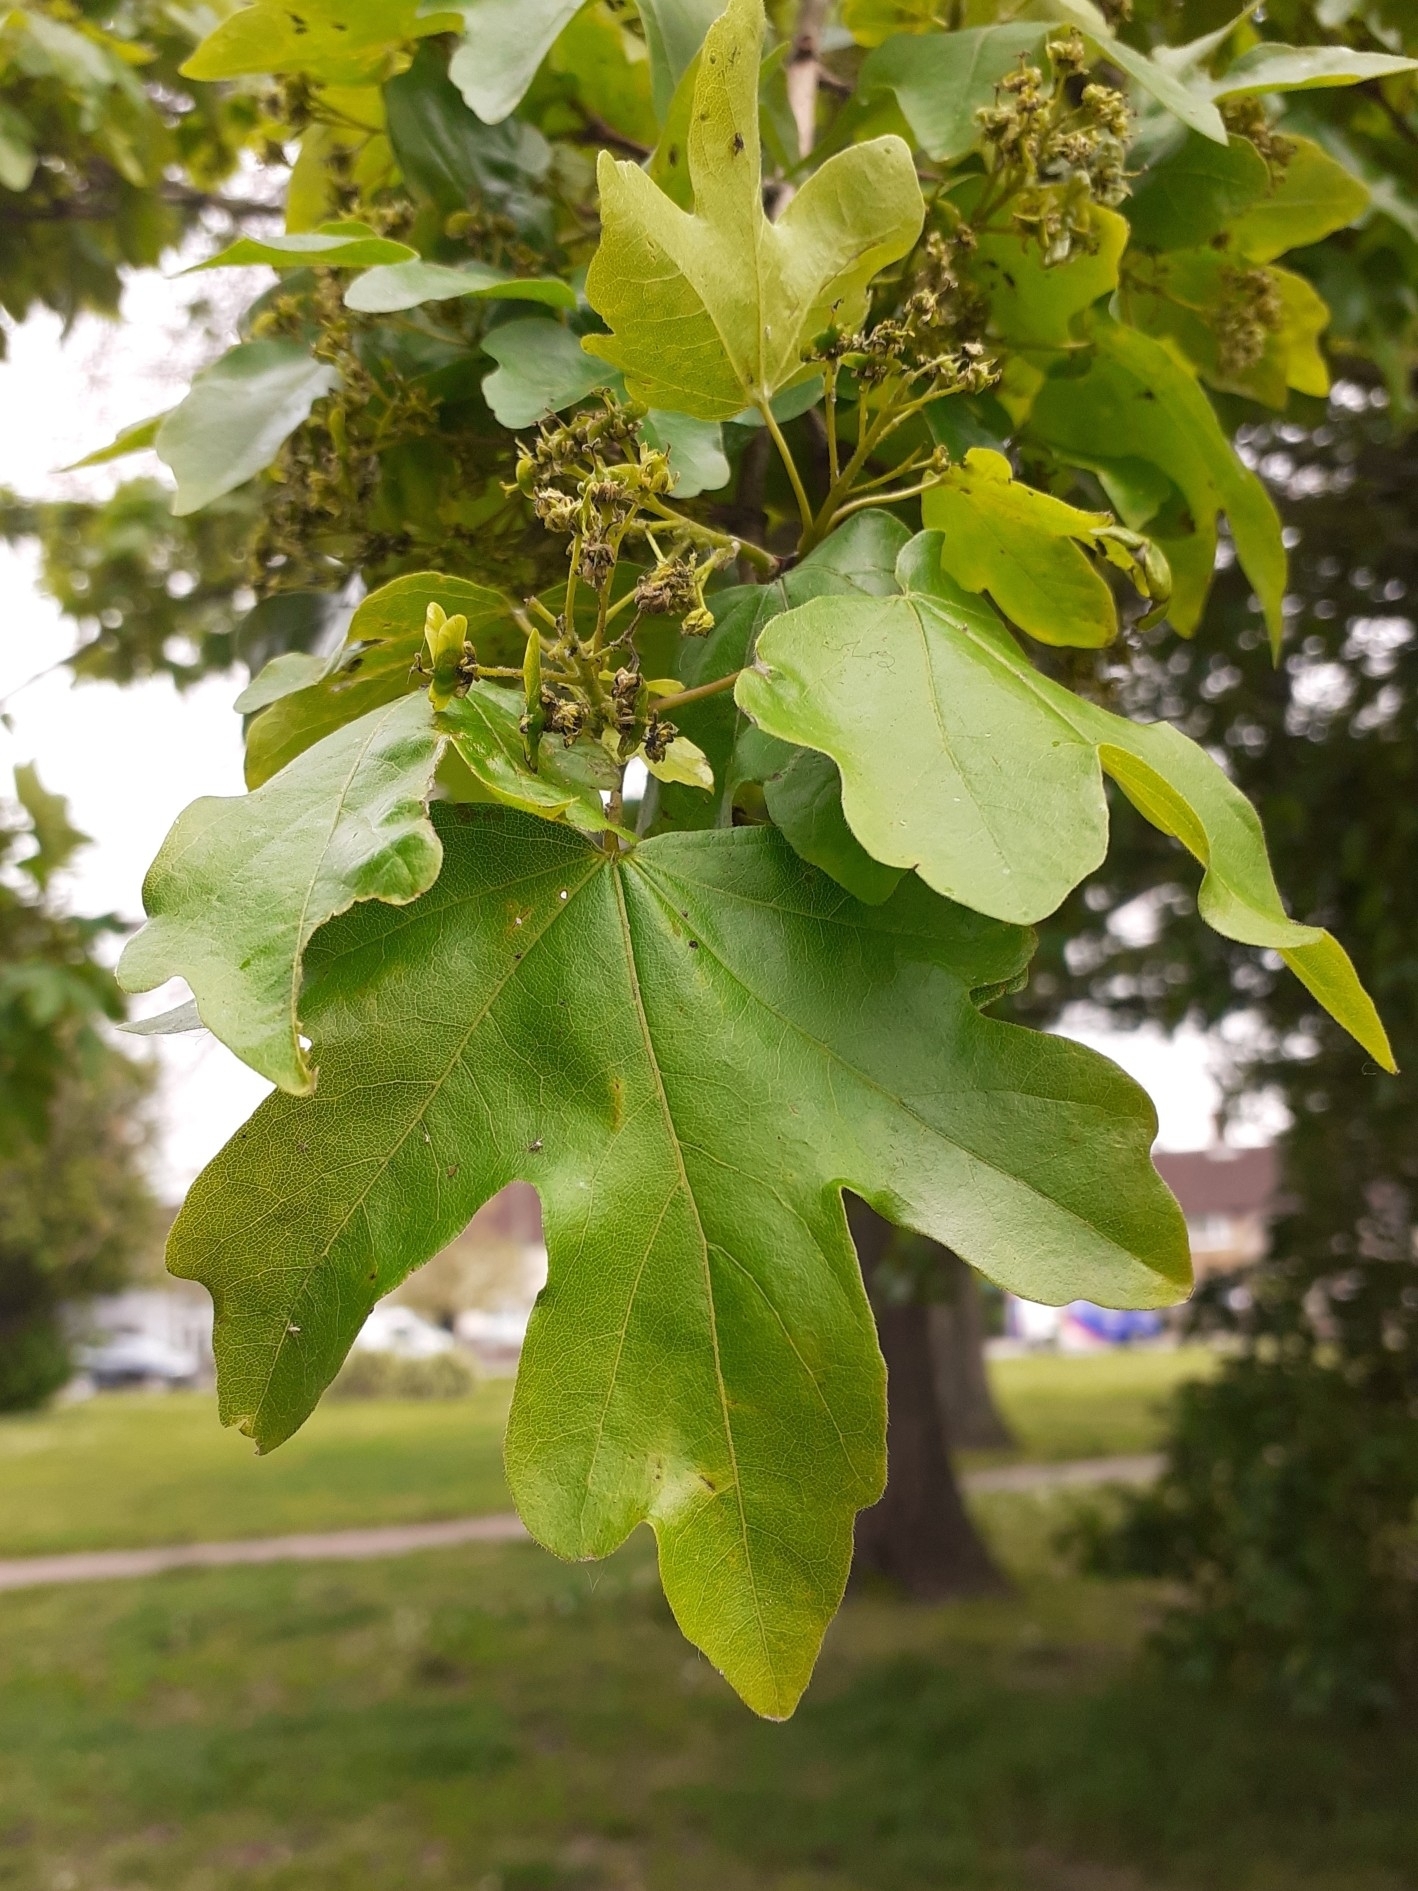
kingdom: Plantae
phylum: Tracheophyta
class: Magnoliopsida
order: Sapindales
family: Sapindaceae
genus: Acer
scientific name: Acer campestre
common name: Field maple
